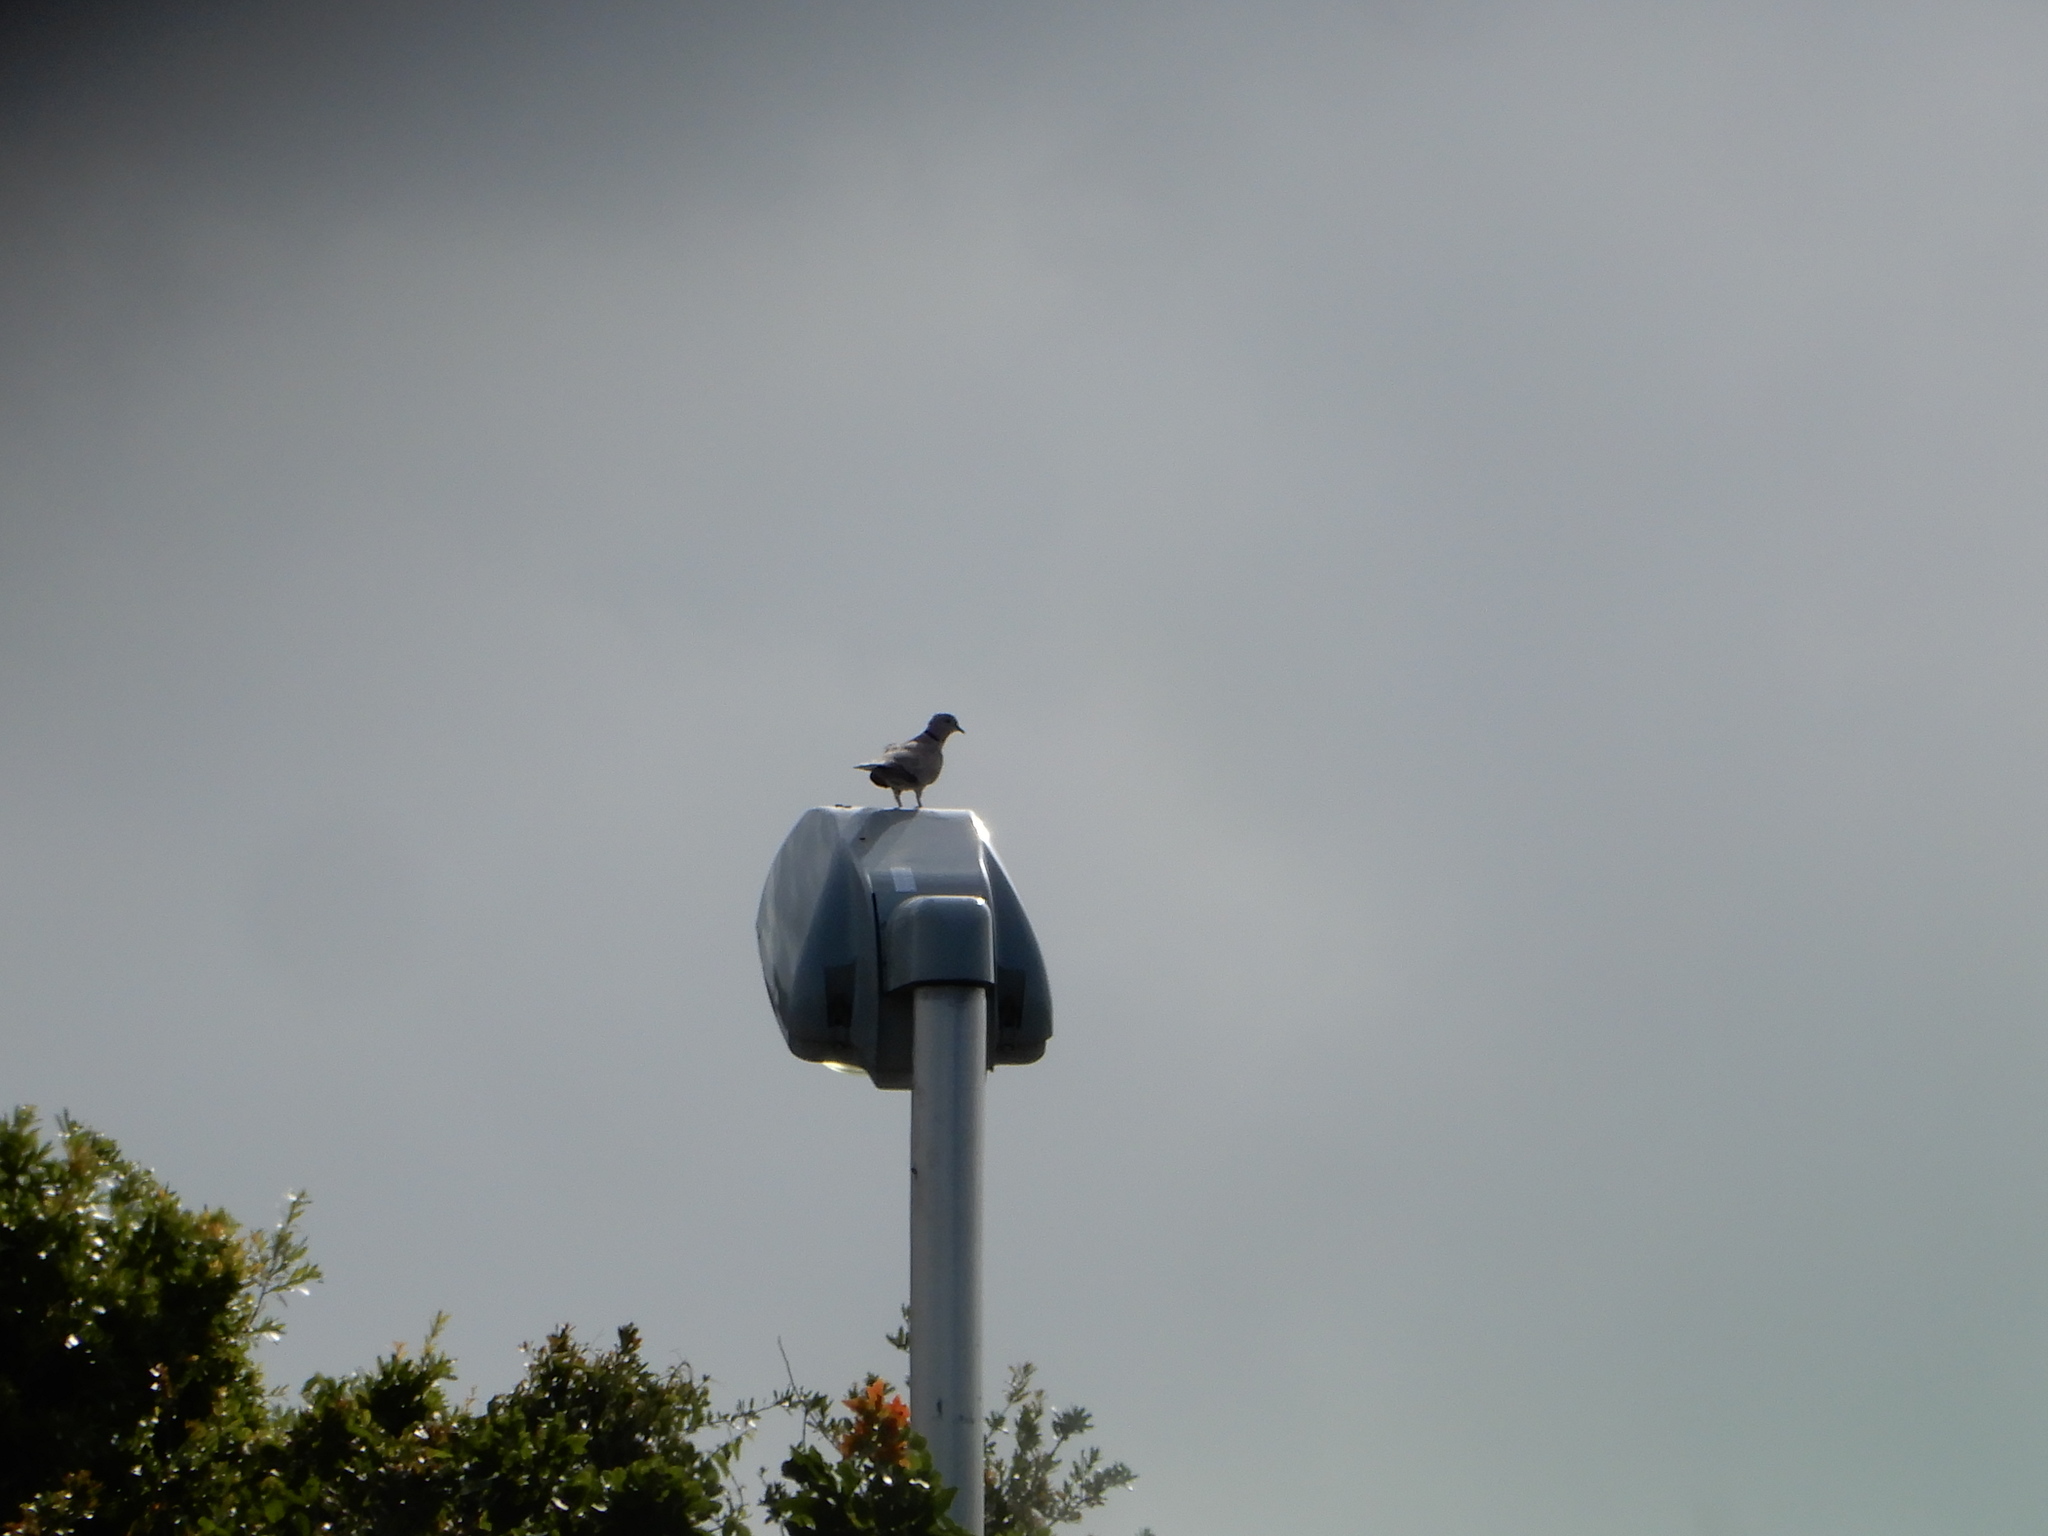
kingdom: Animalia
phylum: Chordata
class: Aves
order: Columbiformes
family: Columbidae
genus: Streptopelia
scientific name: Streptopelia decaocto
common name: Eurasian collared dove
